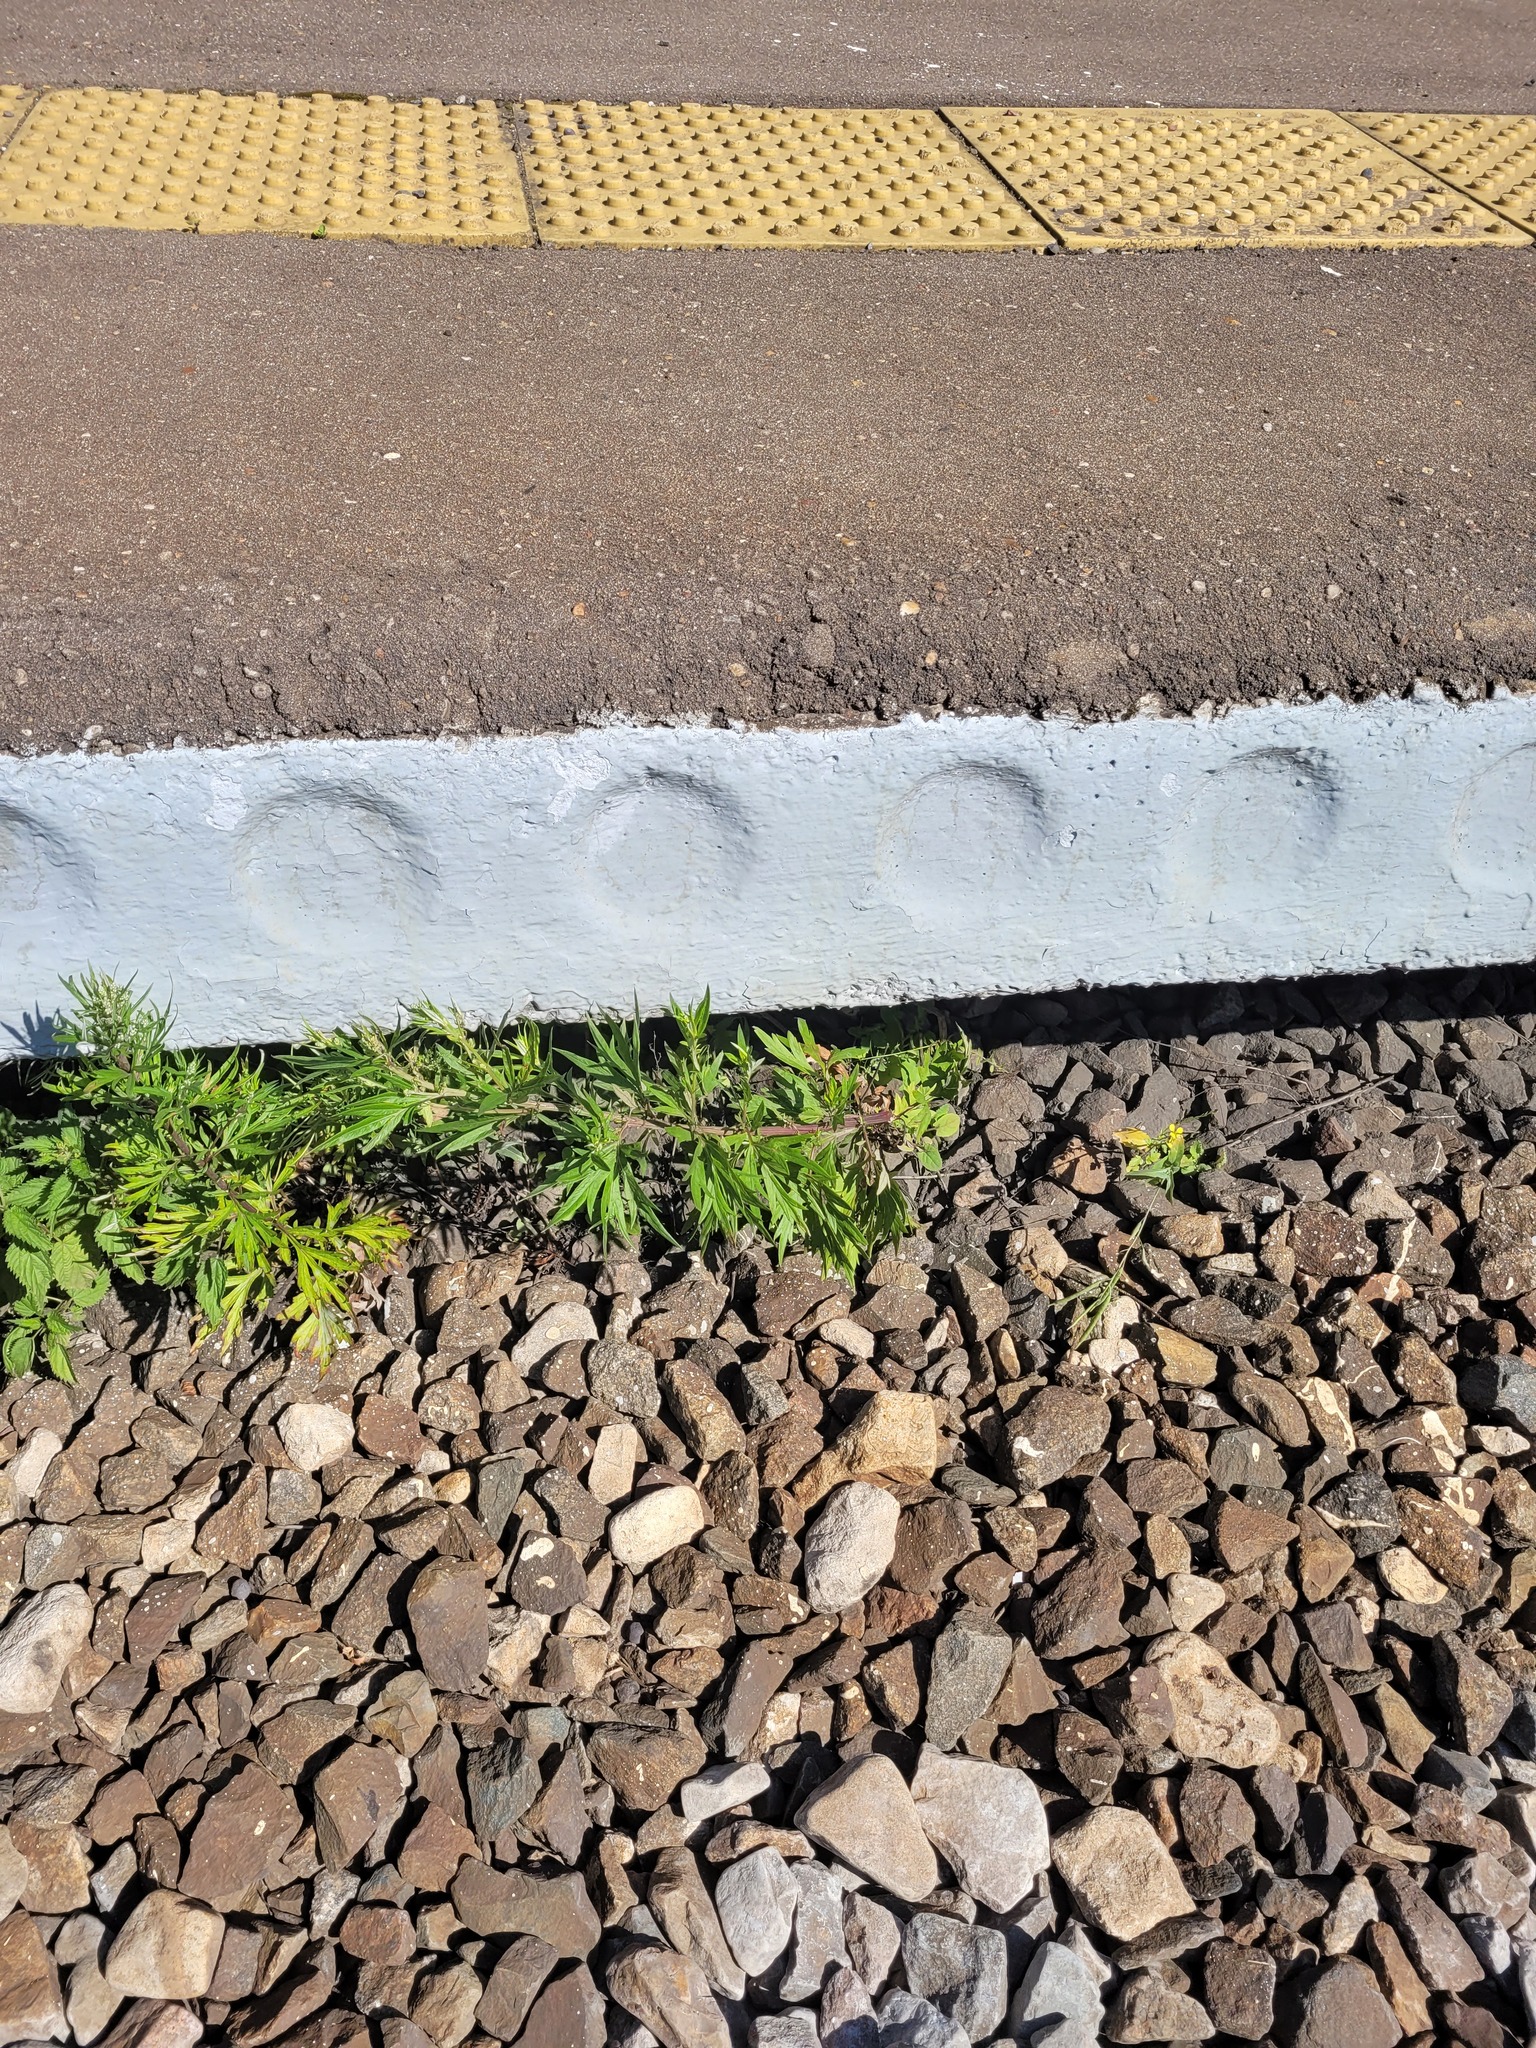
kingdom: Plantae
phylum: Tracheophyta
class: Magnoliopsida
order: Asterales
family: Asteraceae
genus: Artemisia
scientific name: Artemisia vulgaris
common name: Mugwort
